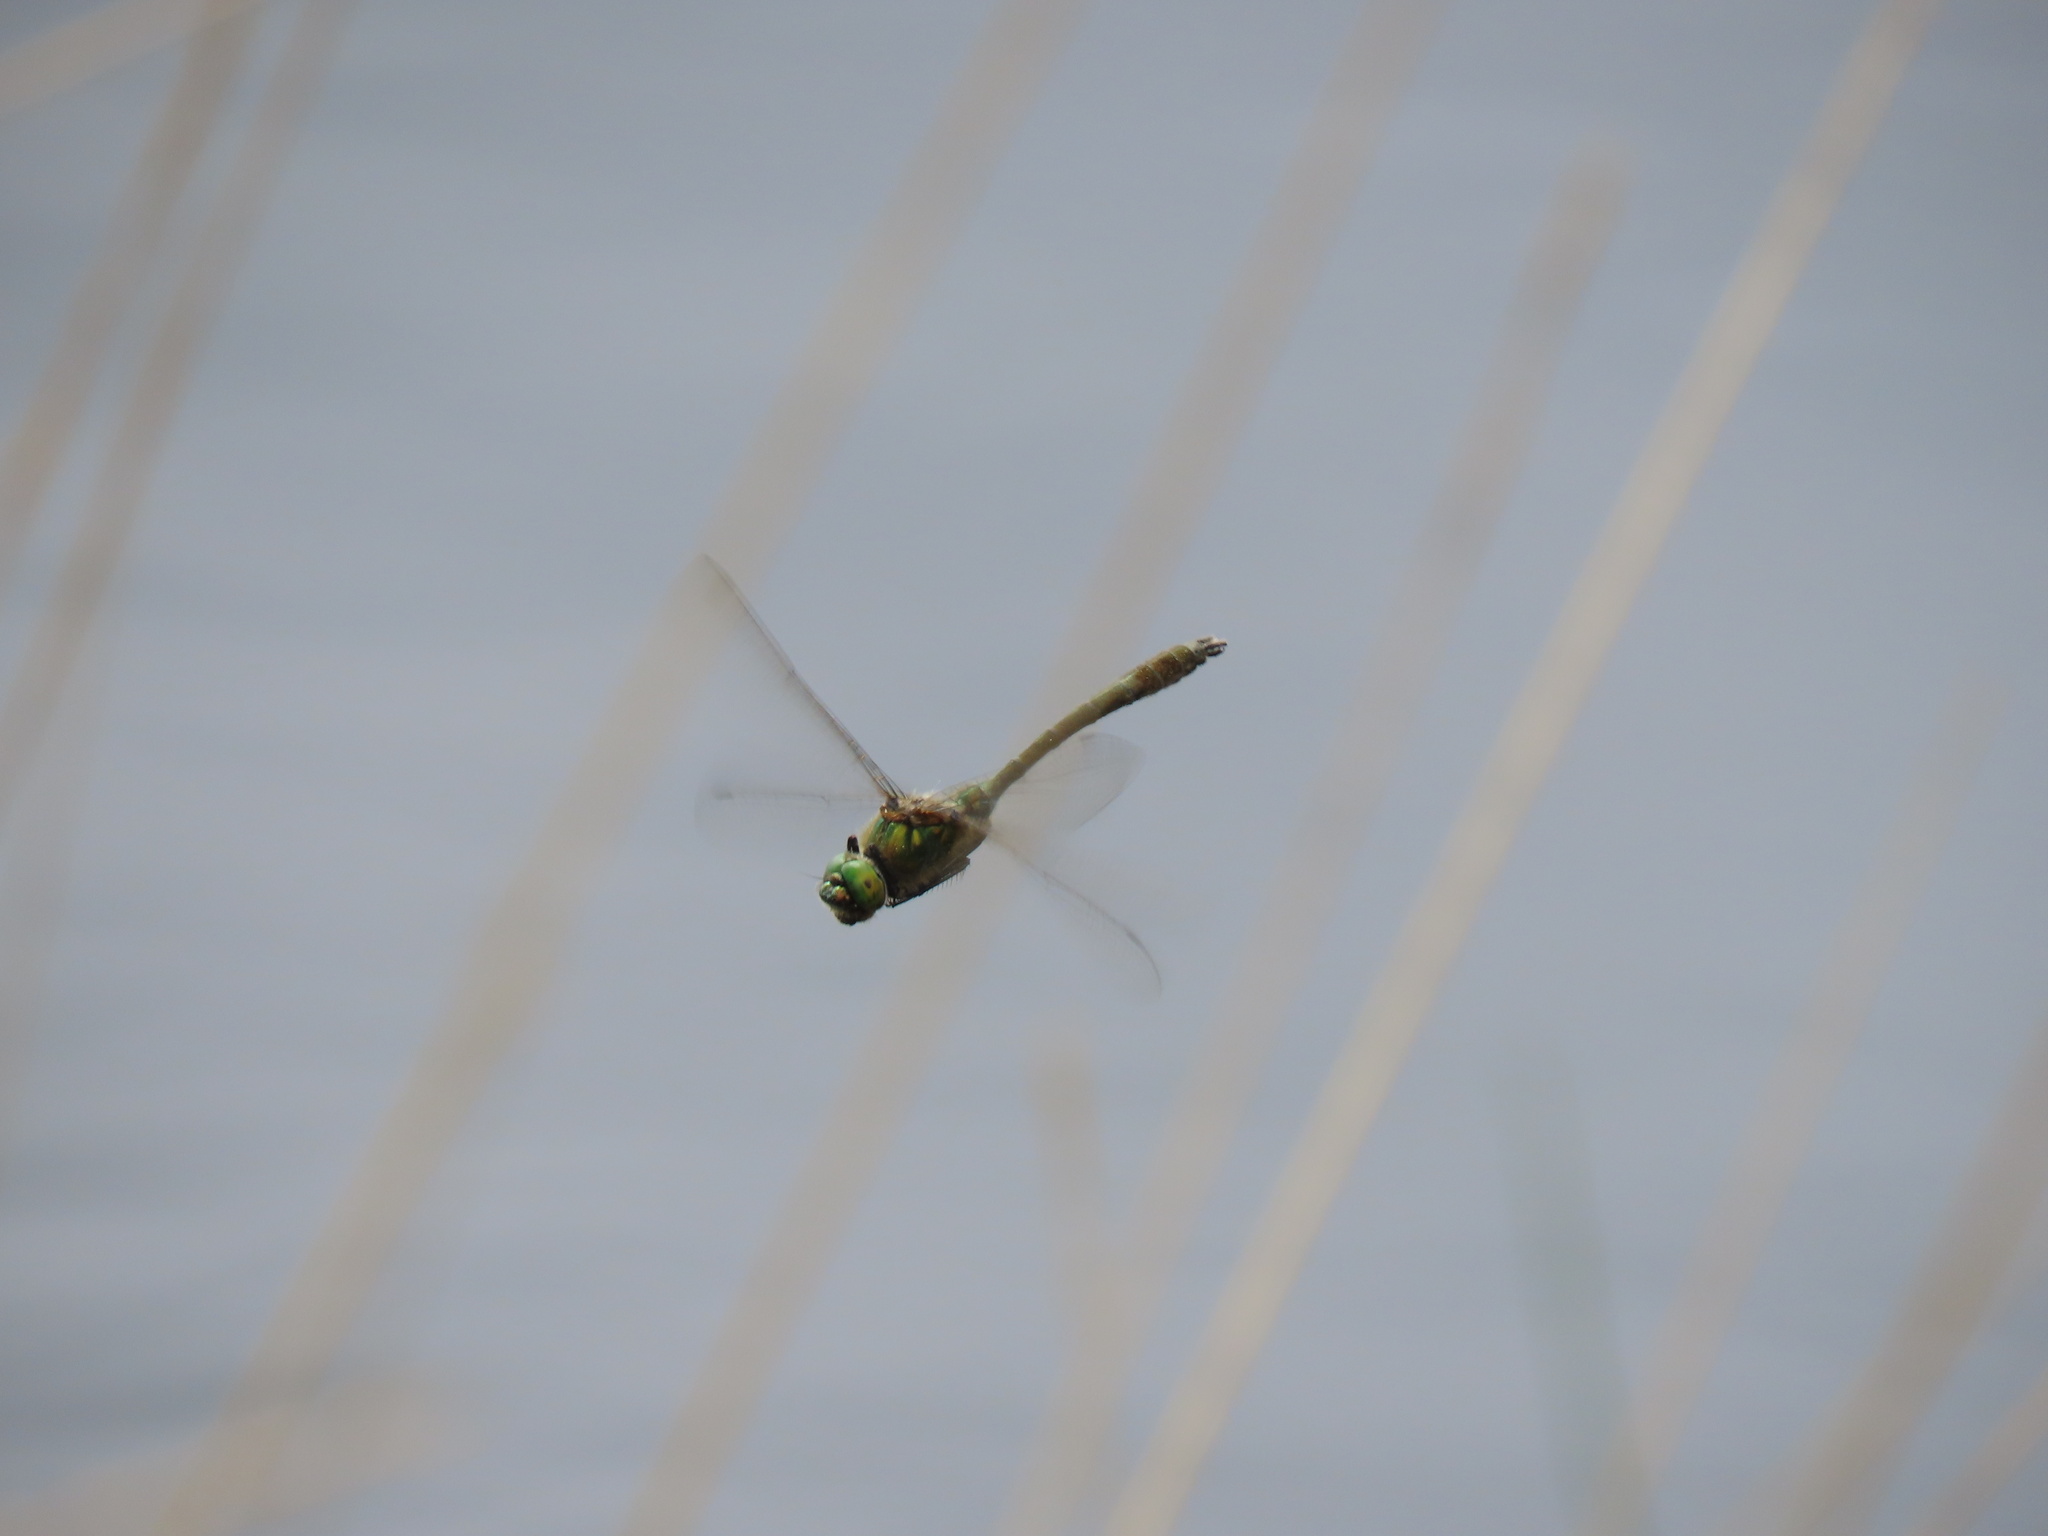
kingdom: Animalia
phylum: Arthropoda
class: Insecta
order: Odonata
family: Corduliidae
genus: Cordulia
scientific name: Cordulia aenea
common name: Downy emerald
